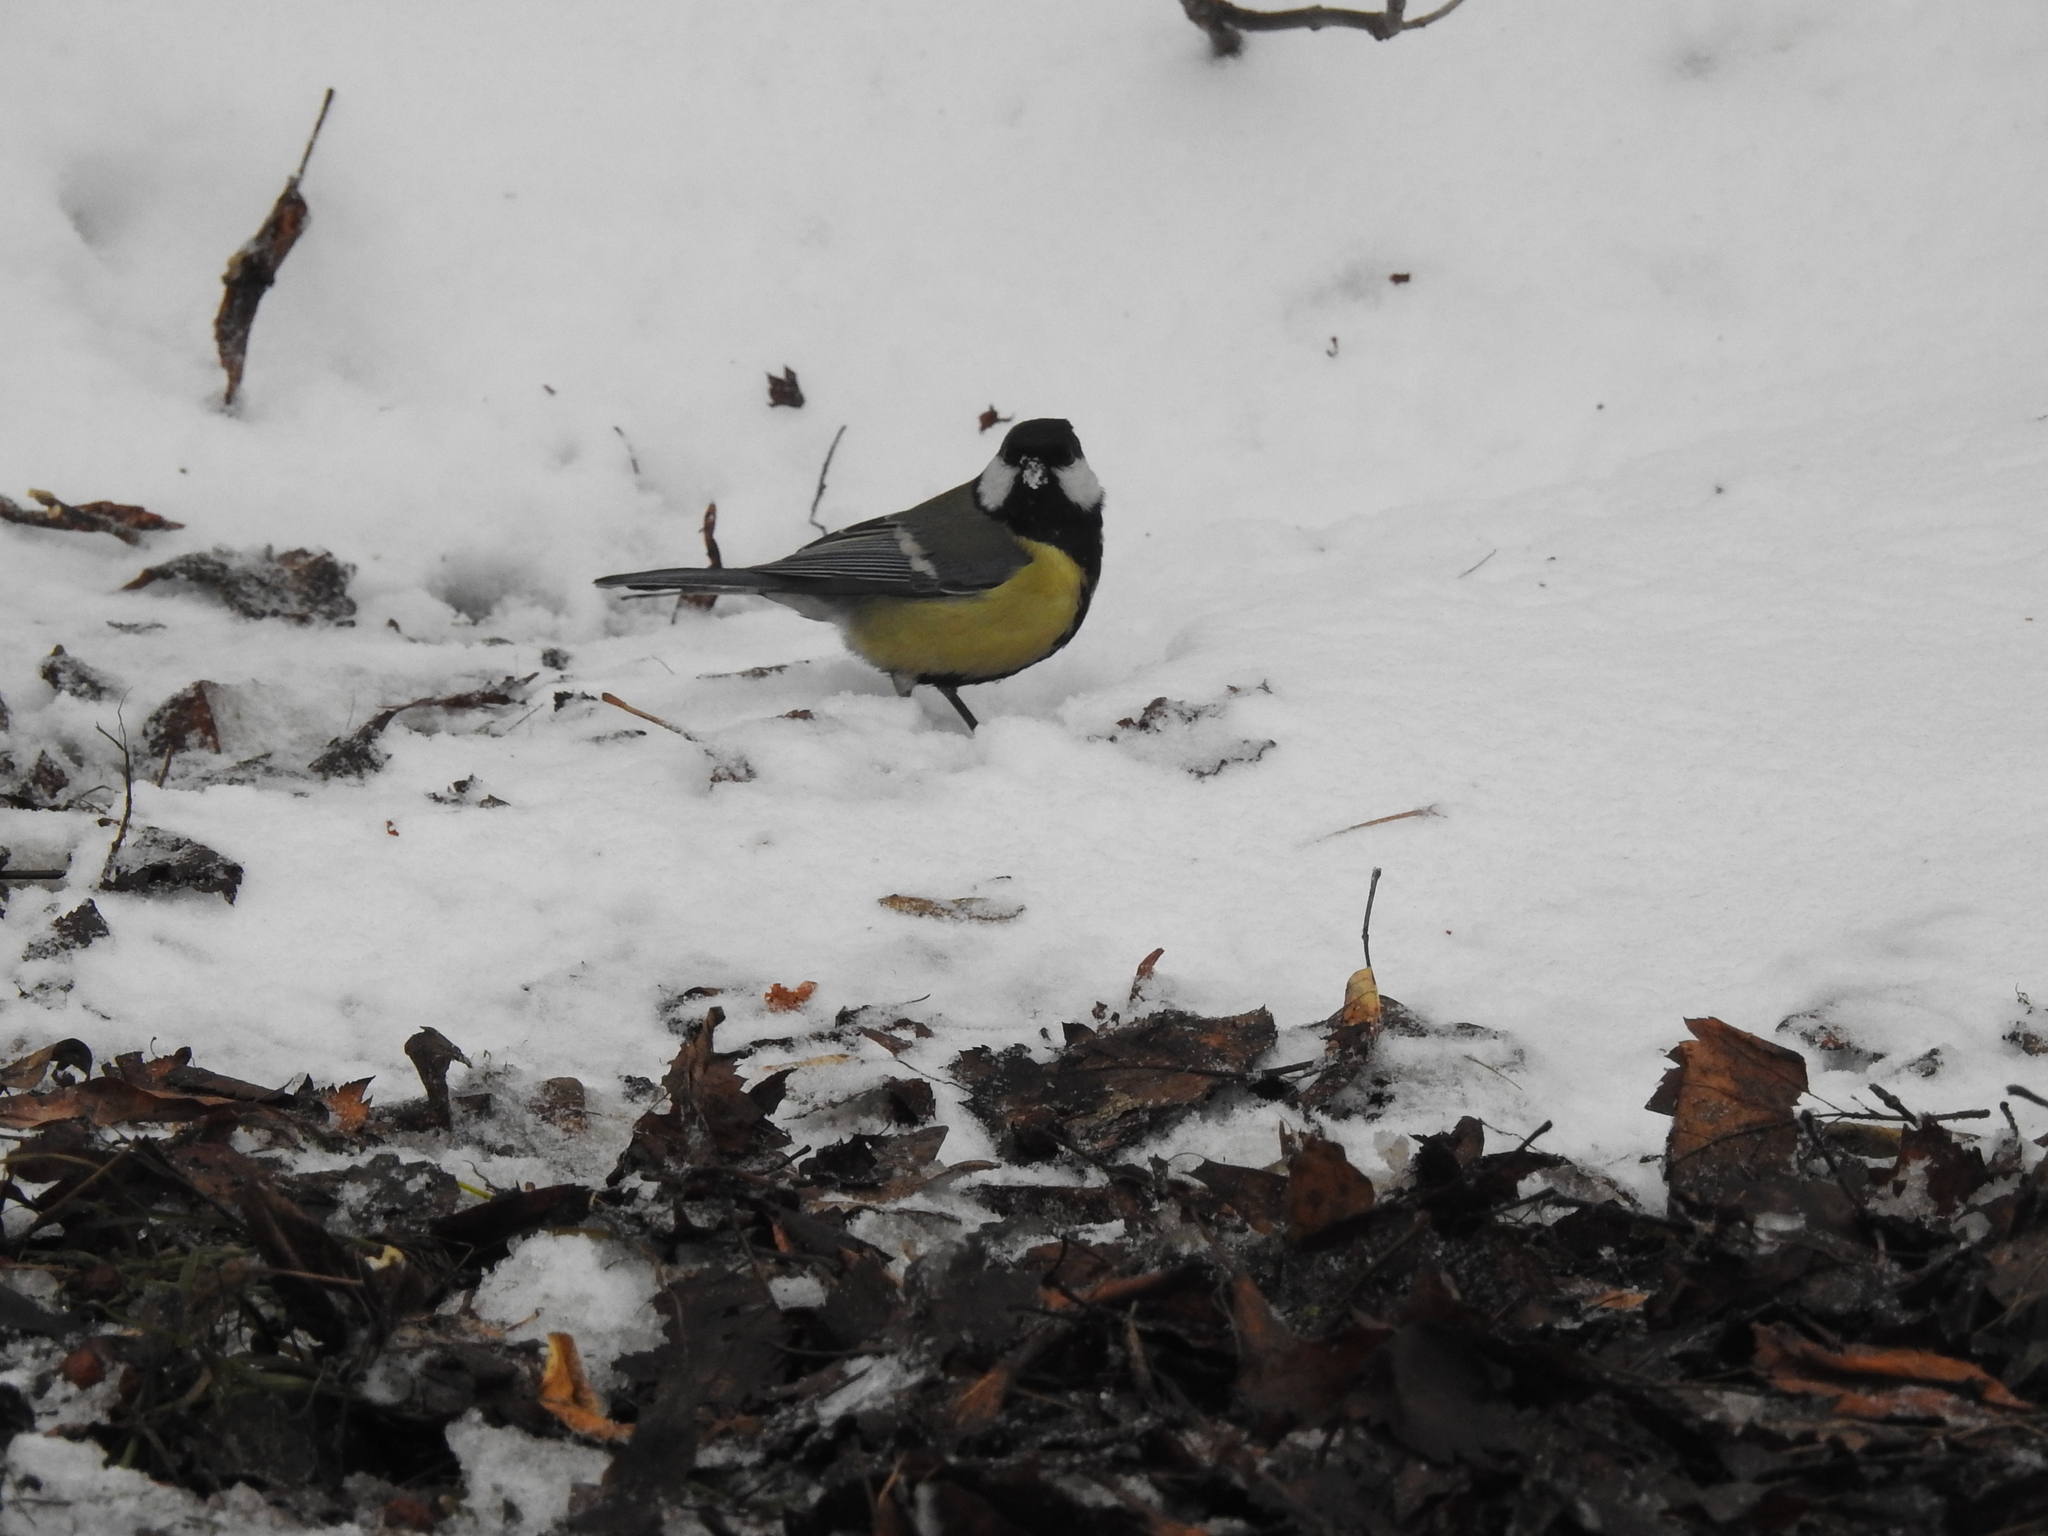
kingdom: Animalia
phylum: Chordata
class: Aves
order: Passeriformes
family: Paridae
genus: Parus
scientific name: Parus major
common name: Great tit
